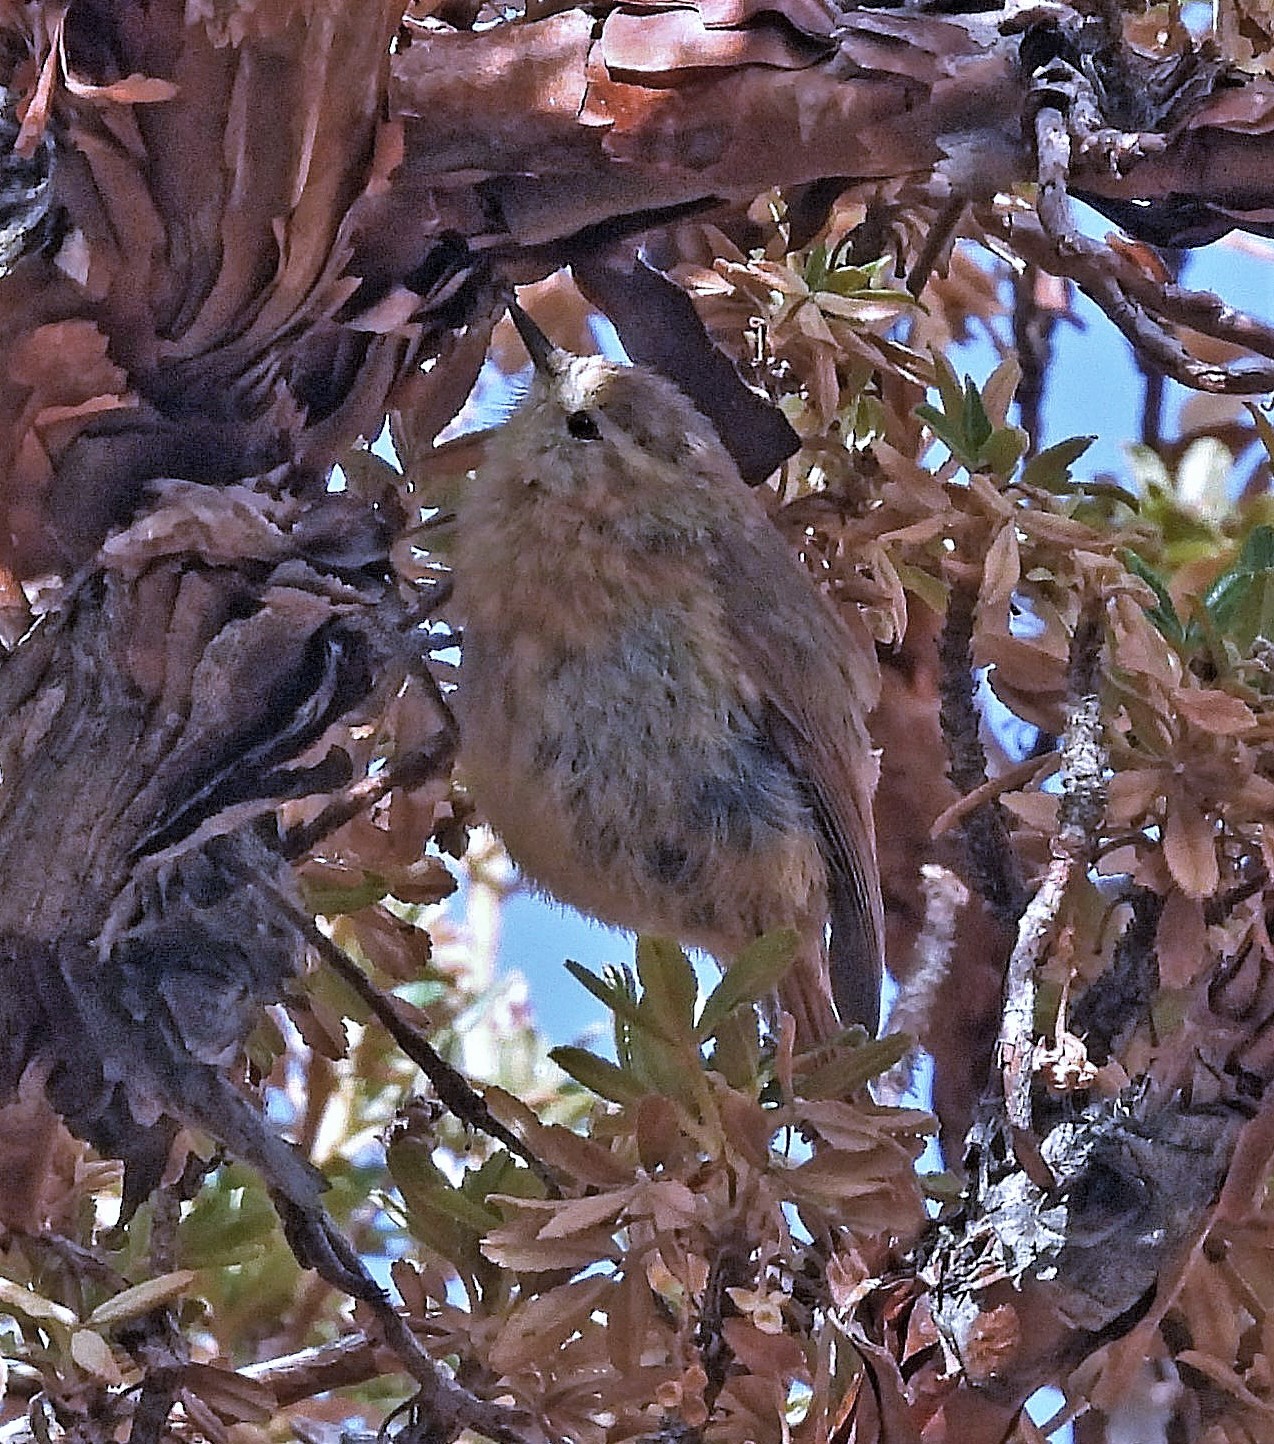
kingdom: Animalia
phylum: Chordata
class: Aves
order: Passeriformes
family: Furnariidae
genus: Leptasthenura
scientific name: Leptasthenura yanacensis
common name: Tawny tit-spinetail
